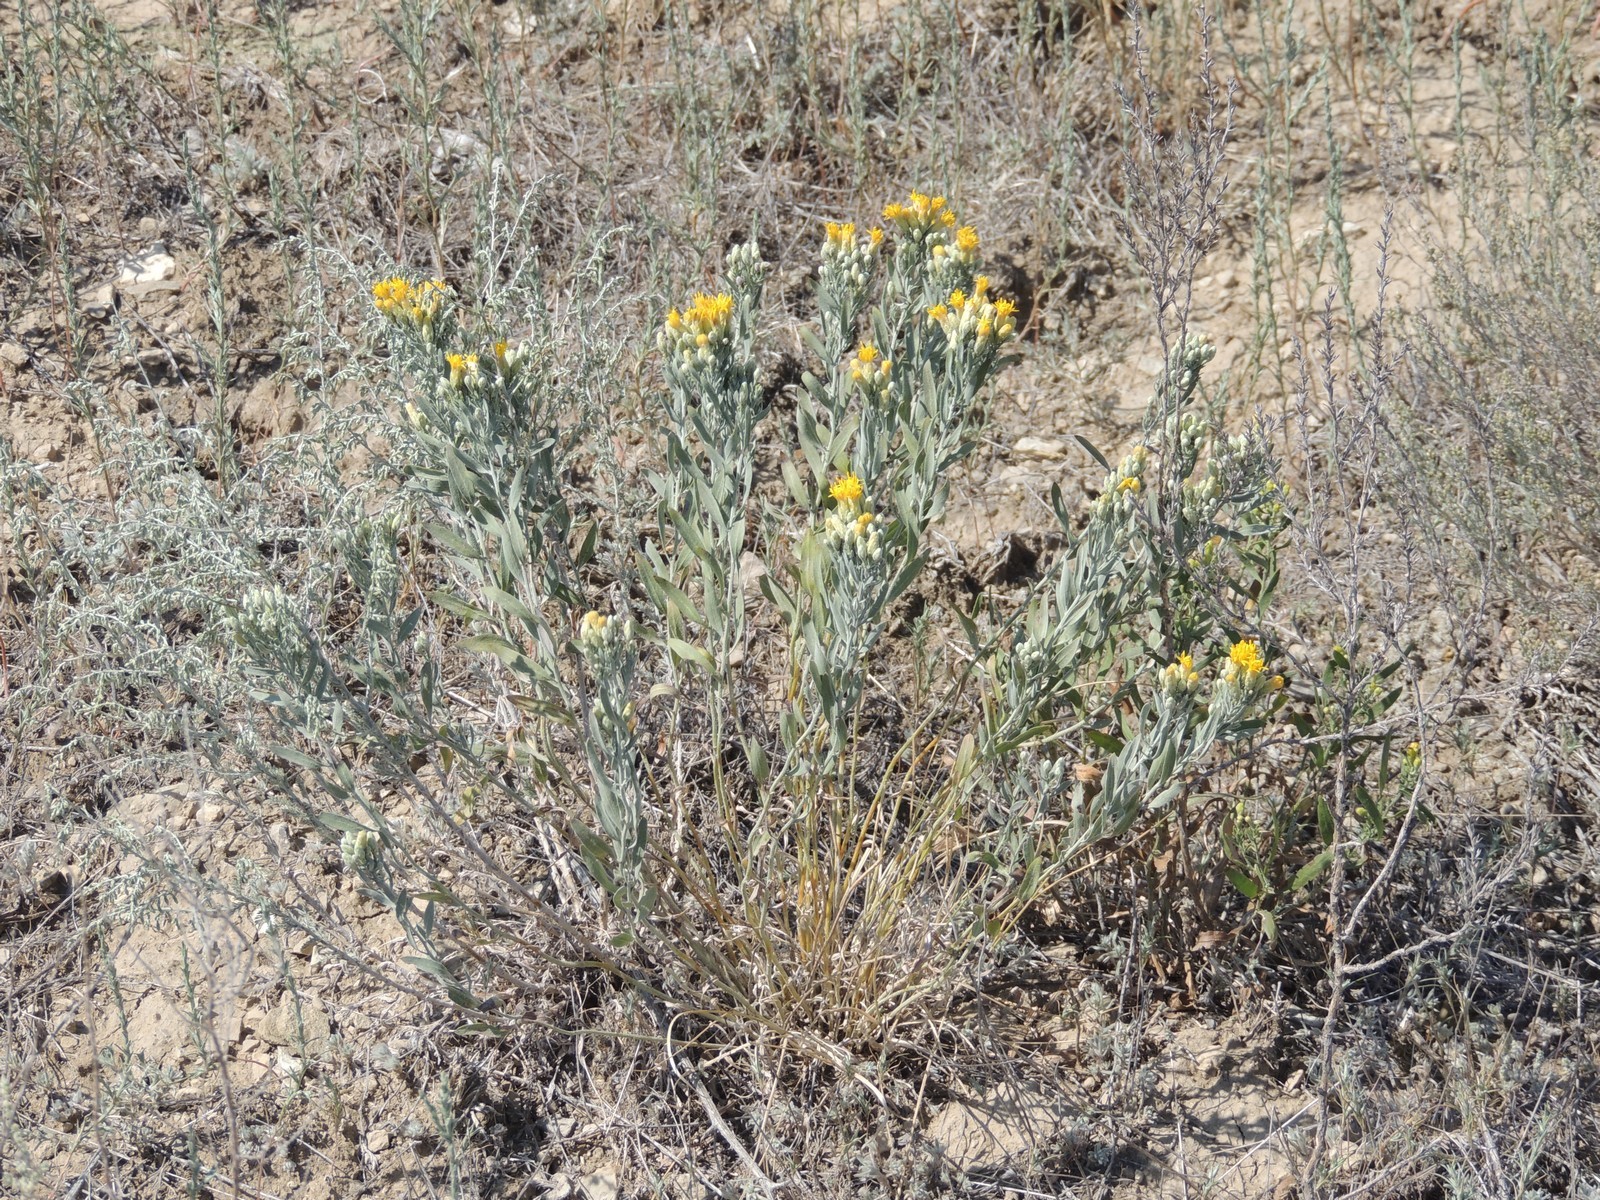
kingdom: Plantae
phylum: Tracheophyta
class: Magnoliopsida
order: Asterales
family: Asteraceae
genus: Galatella
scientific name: Galatella villosa
